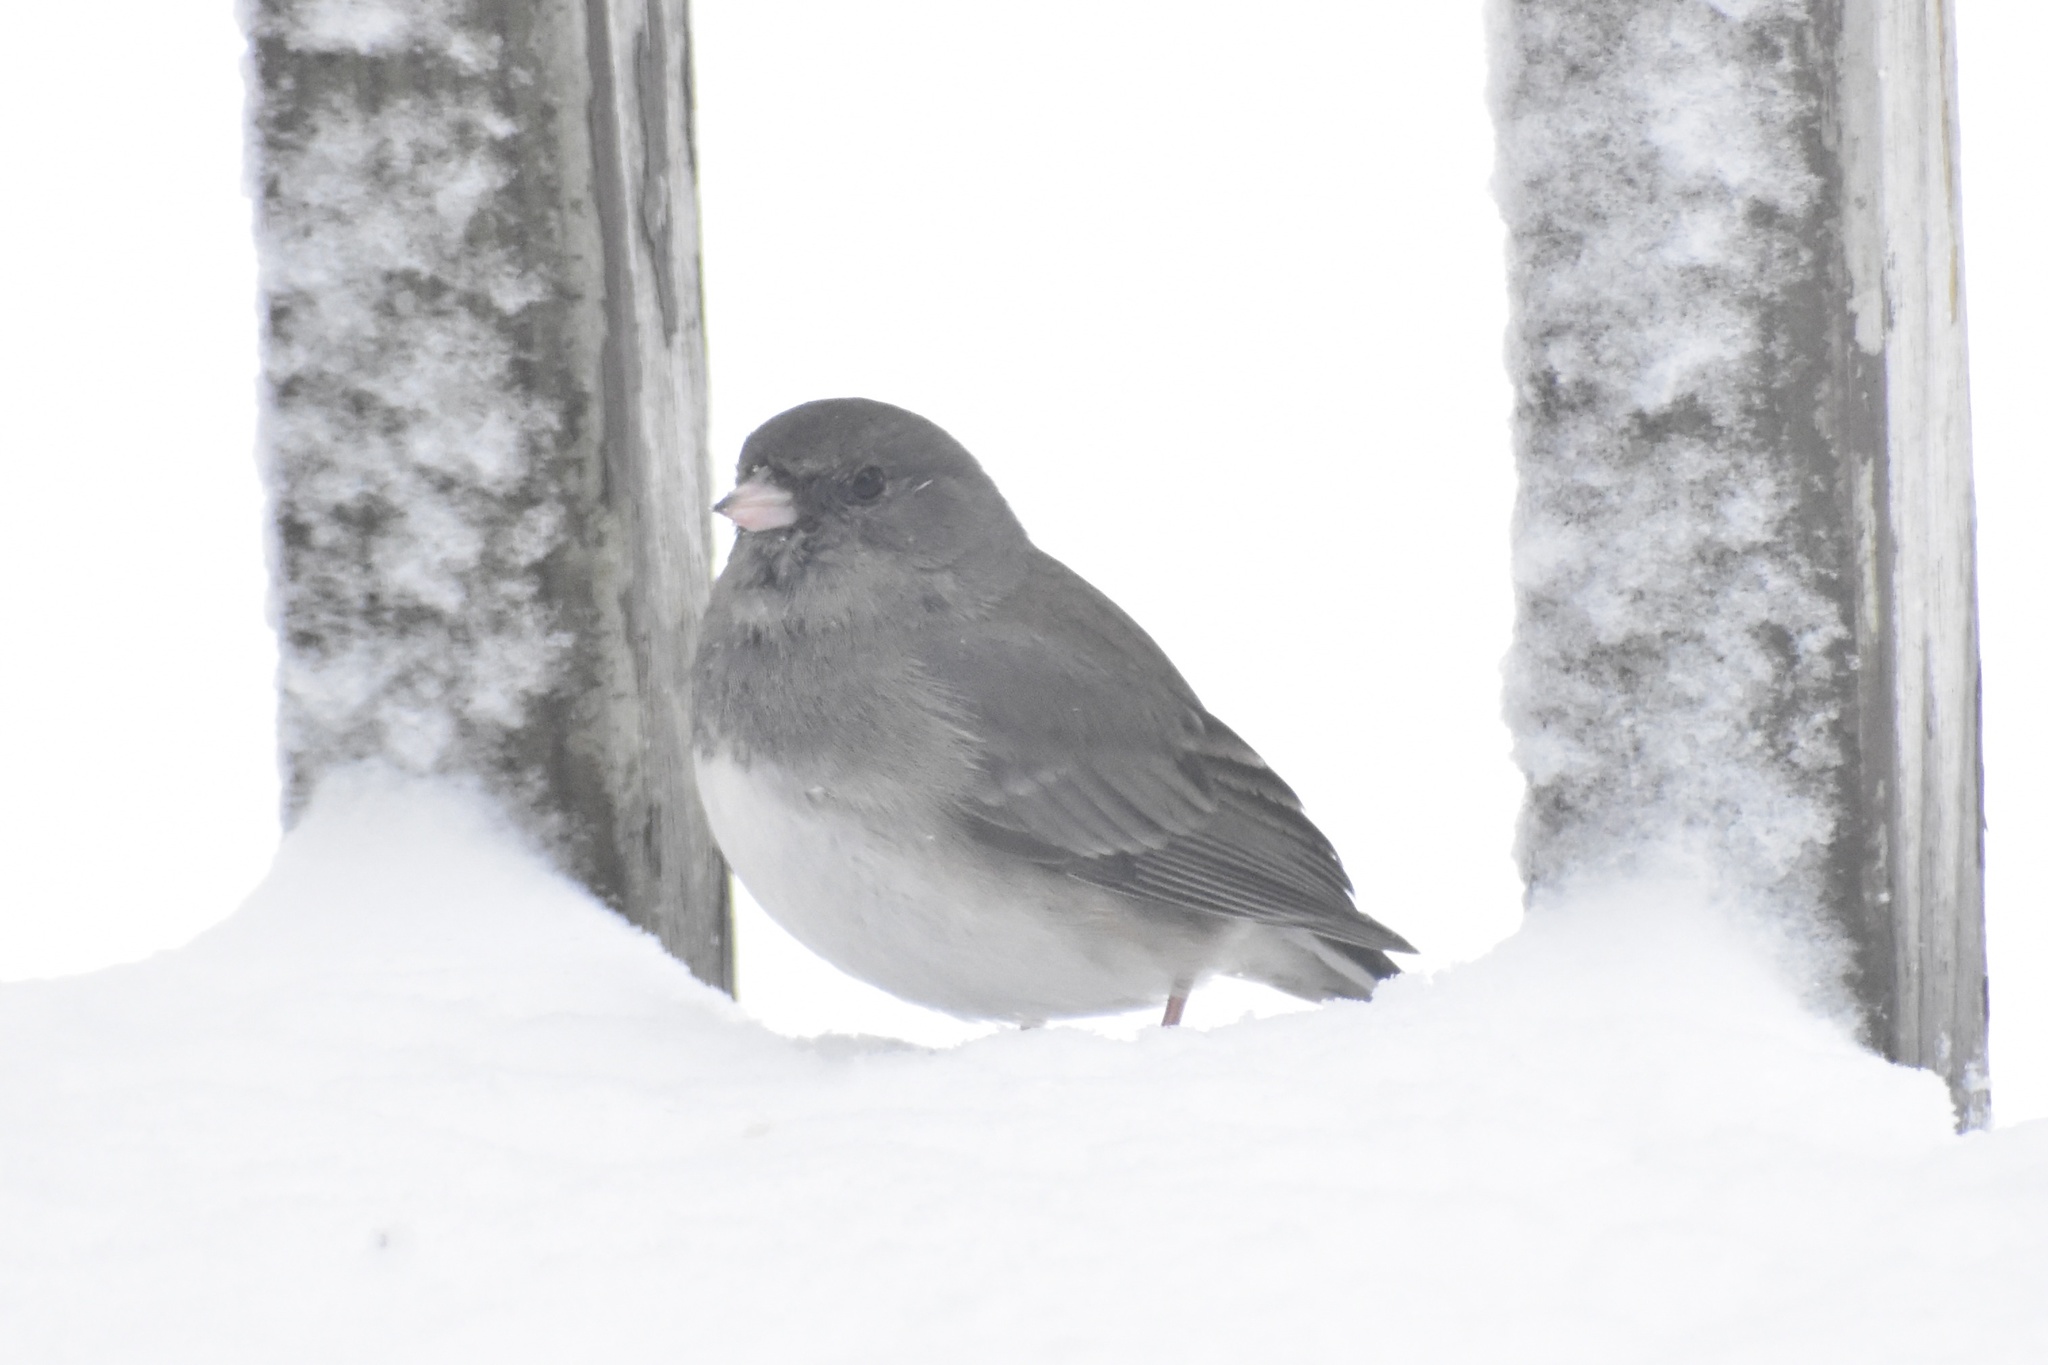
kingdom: Animalia
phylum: Chordata
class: Aves
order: Passeriformes
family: Passerellidae
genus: Junco
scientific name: Junco hyemalis
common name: Dark-eyed junco
